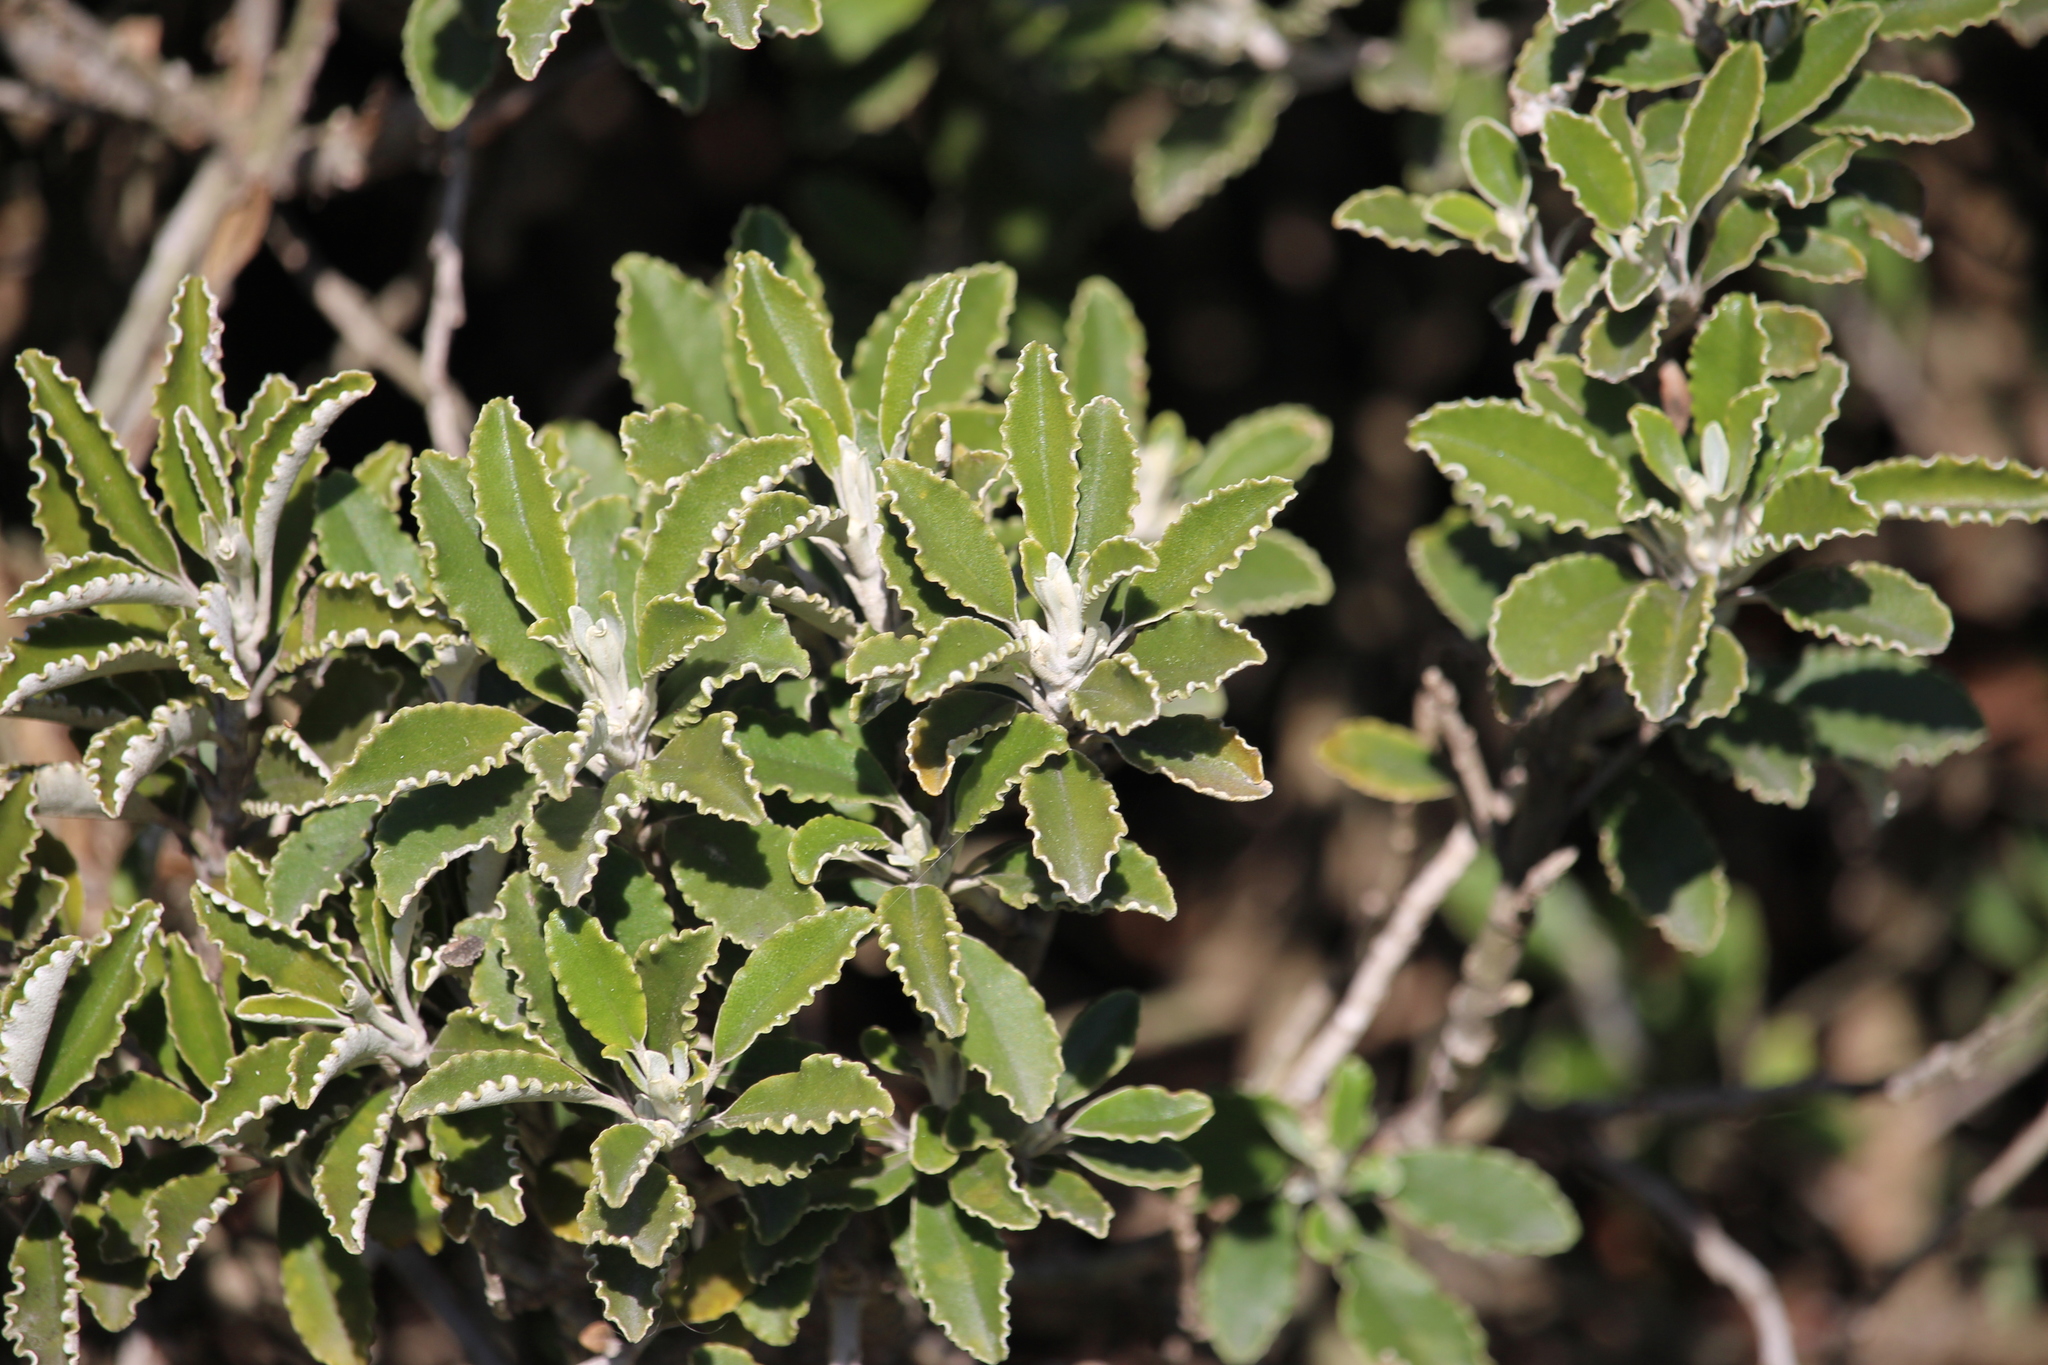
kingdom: Plantae
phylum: Tracheophyta
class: Magnoliopsida
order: Asterales
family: Asteraceae
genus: Brachyglottis
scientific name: Brachyglottis monroi
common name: Monro's ragwort
